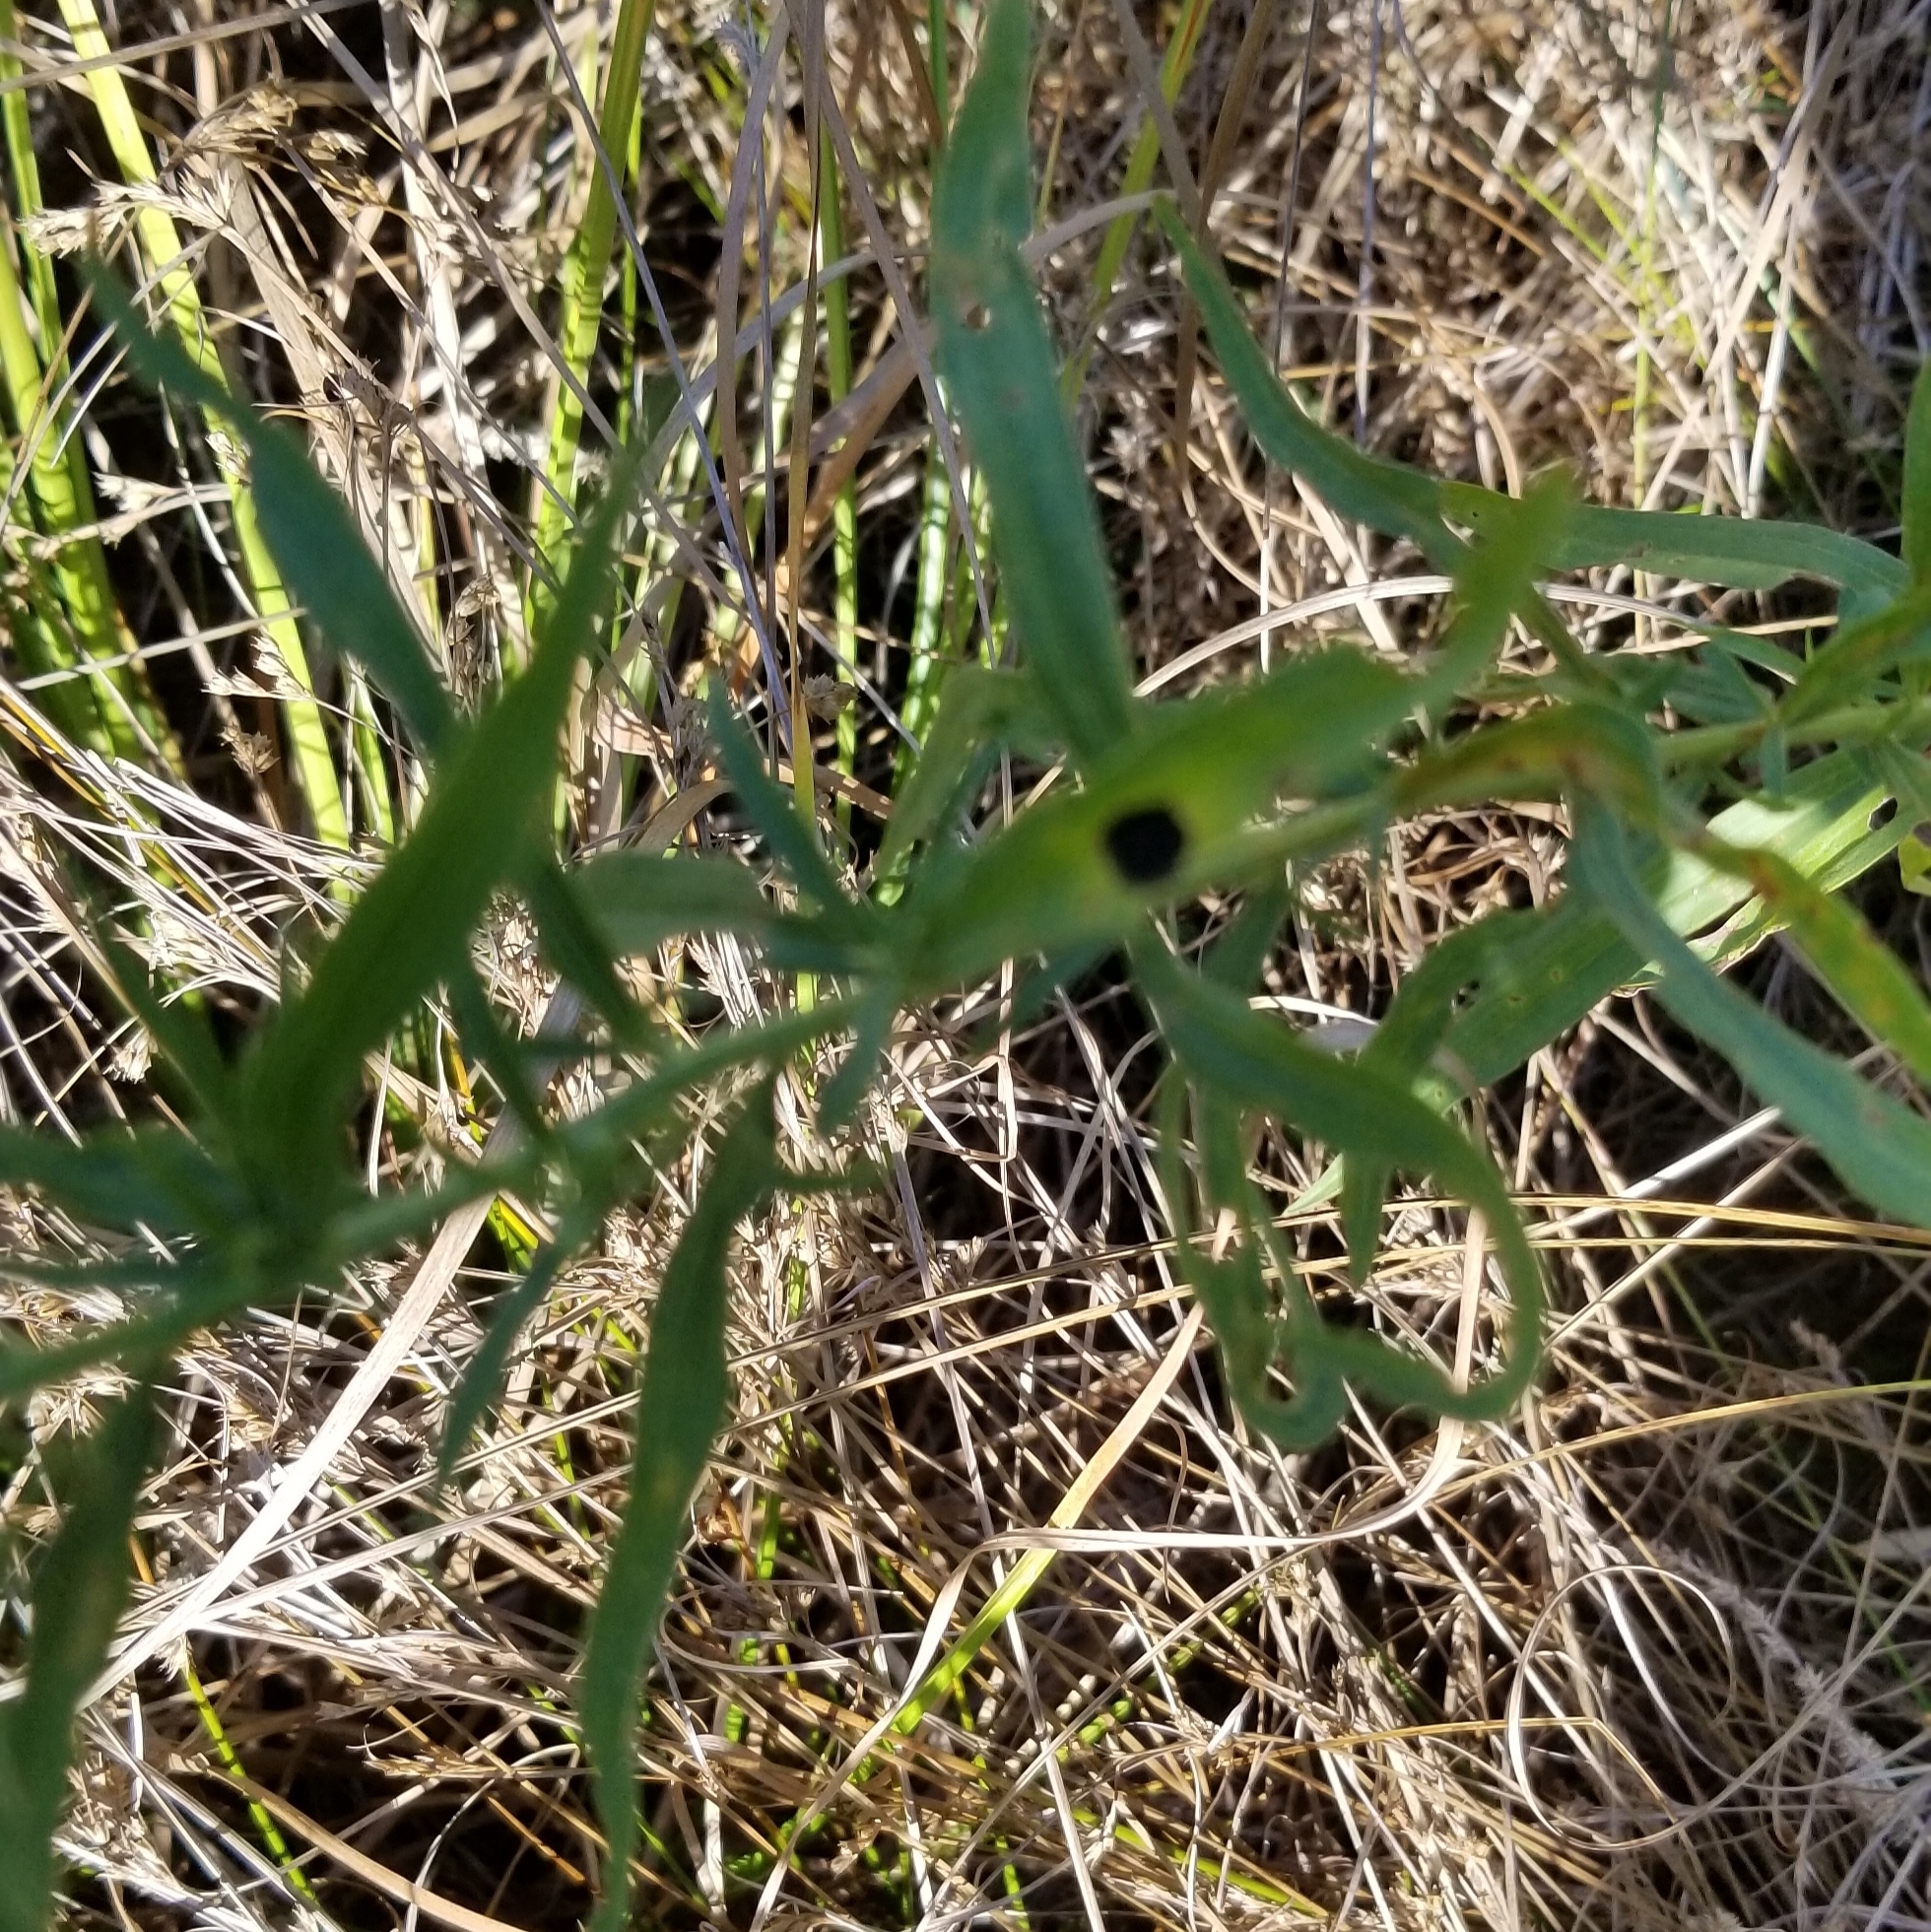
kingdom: Animalia
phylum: Arthropoda
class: Insecta
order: Diptera
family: Cecidomyiidae
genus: Asteromyia
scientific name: Asteromyia euthamiae
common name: Euthamia leaf gall midge
